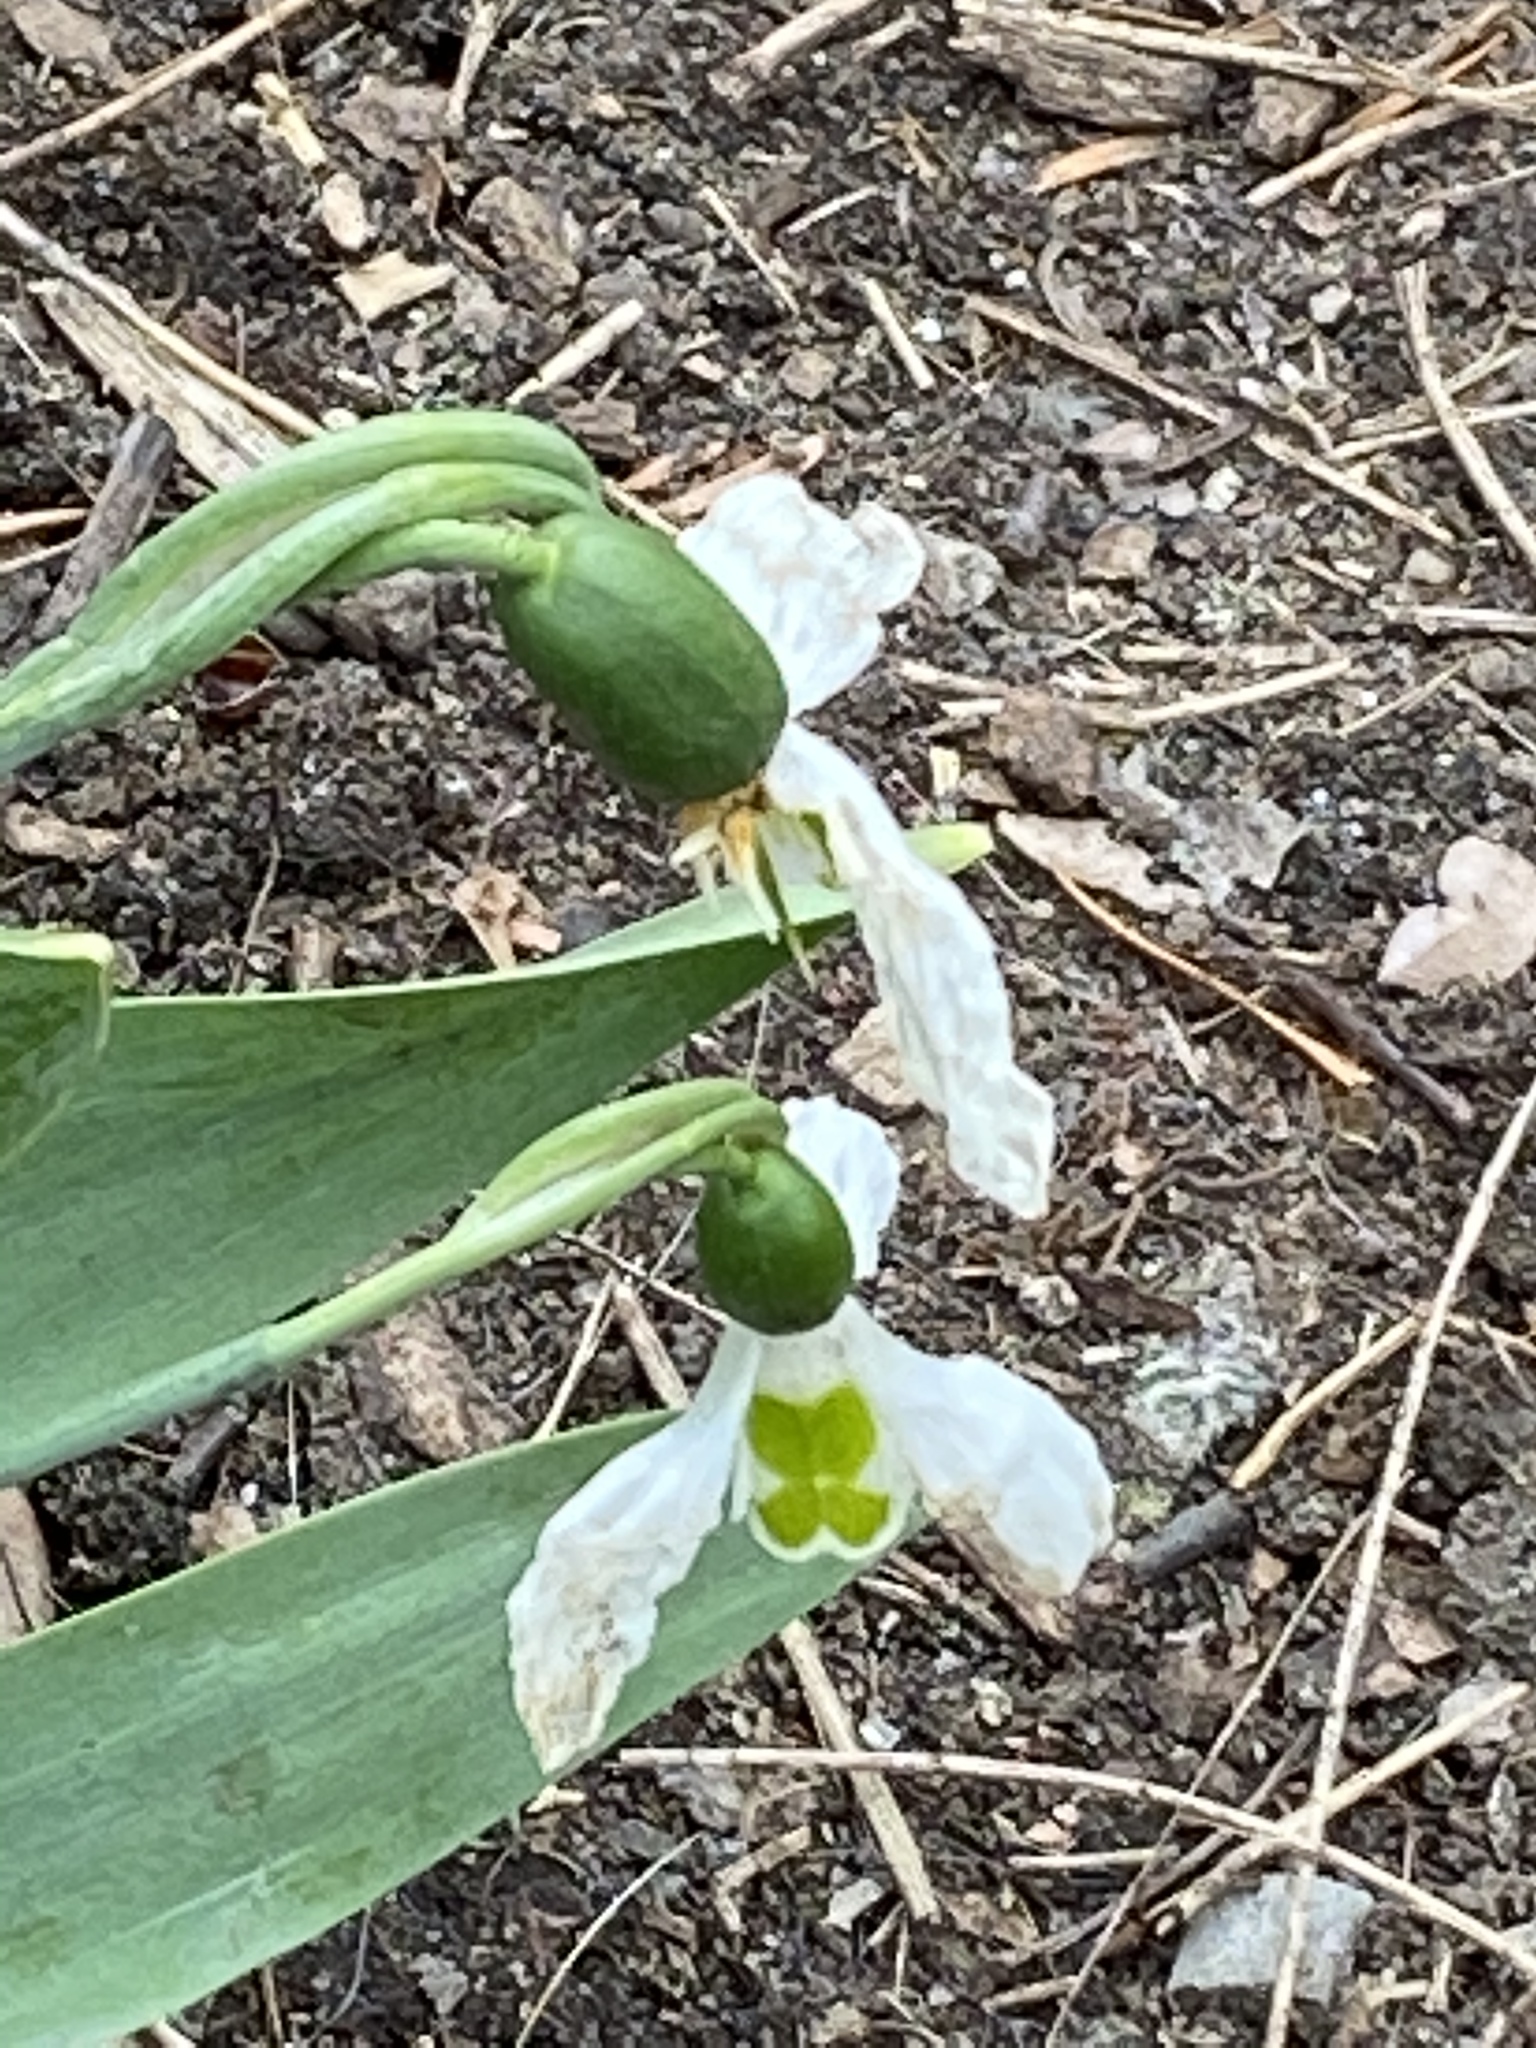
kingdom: Plantae
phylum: Tracheophyta
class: Liliopsida
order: Asparagales
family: Amaryllidaceae
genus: Galanthus
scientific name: Galanthus elwesii
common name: Greater snowdrop
